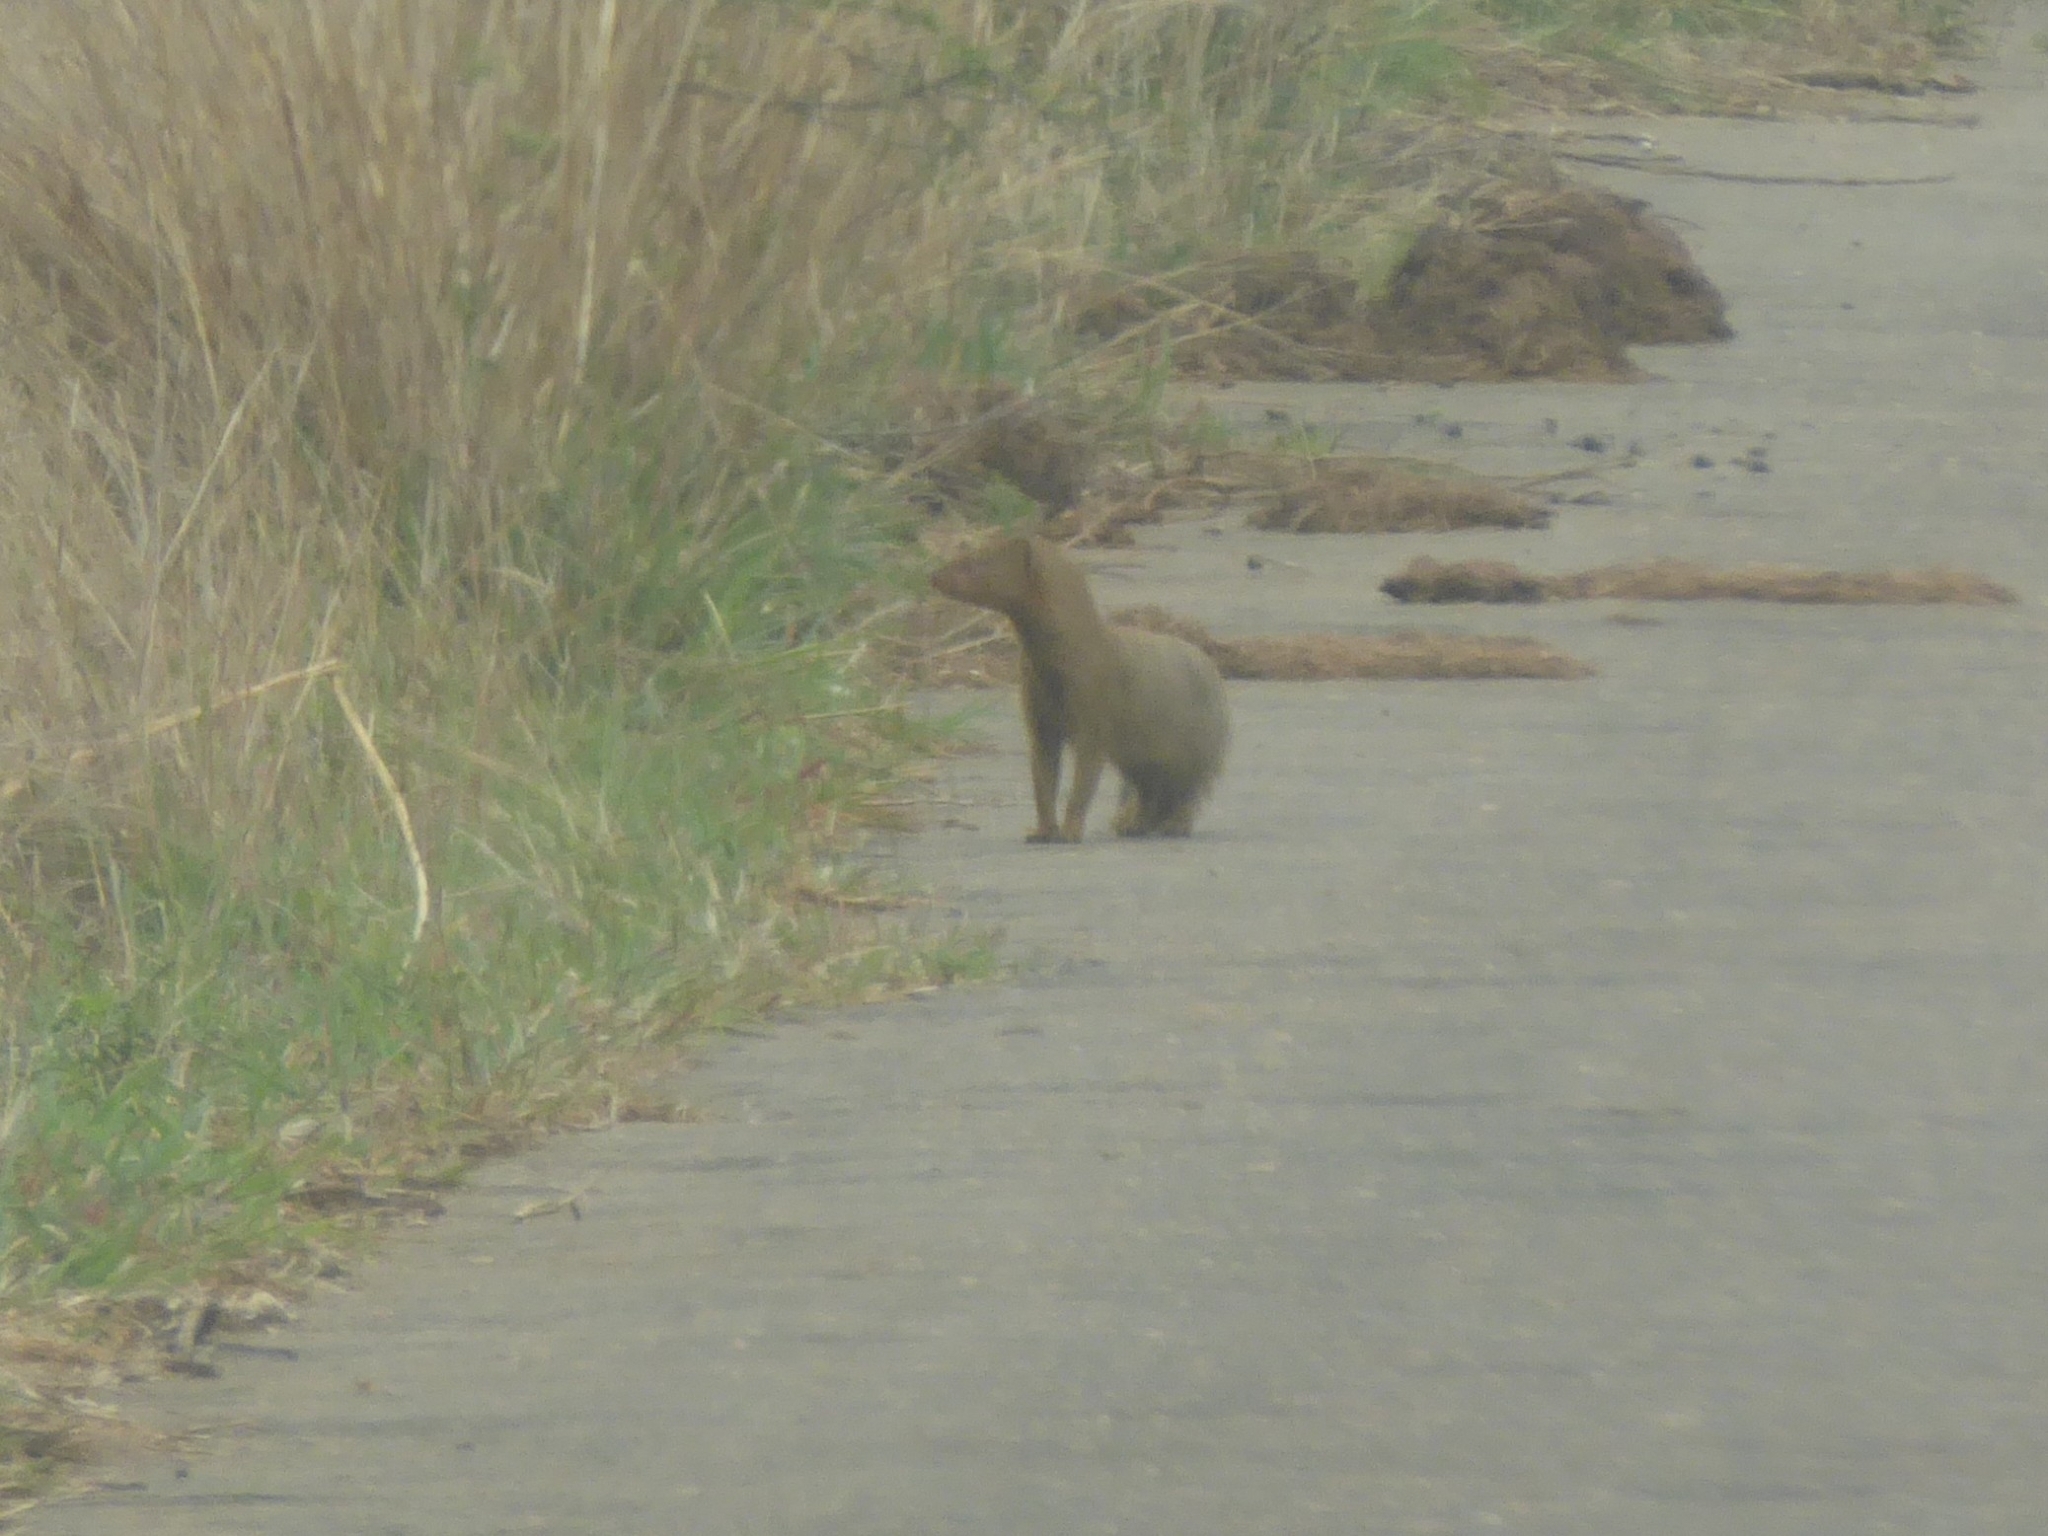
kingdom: Animalia
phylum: Chordata
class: Mammalia
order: Carnivora
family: Herpestidae
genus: Galerella
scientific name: Galerella sanguinea
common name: Slender mongoose
